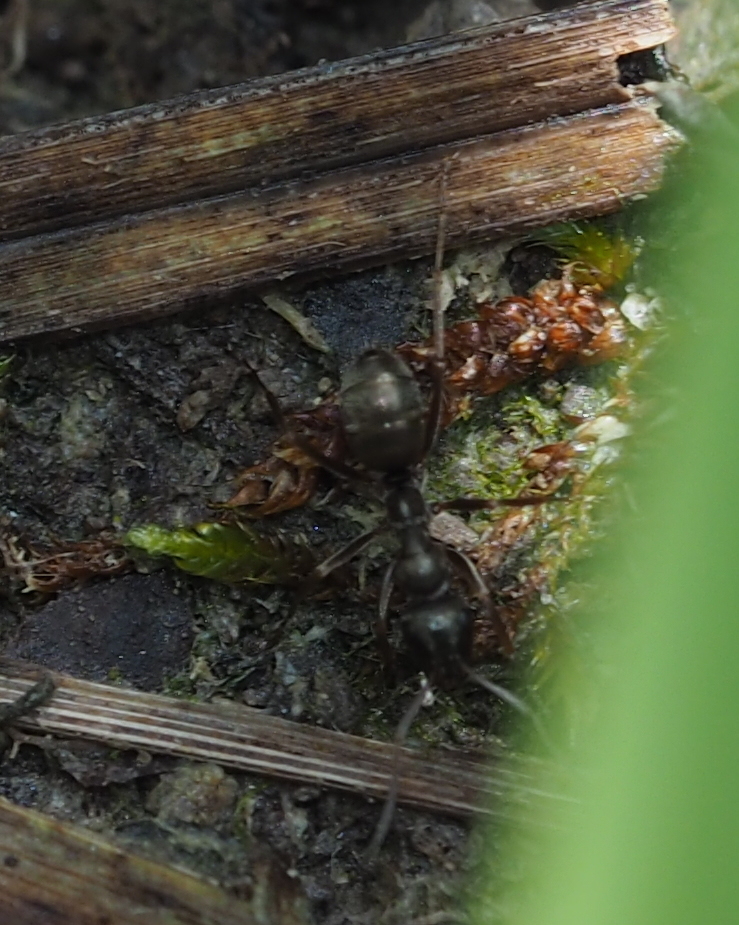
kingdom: Animalia
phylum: Arthropoda
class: Insecta
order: Hymenoptera
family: Formicidae
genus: Formica
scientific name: Formica fusca
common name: Silky ant
